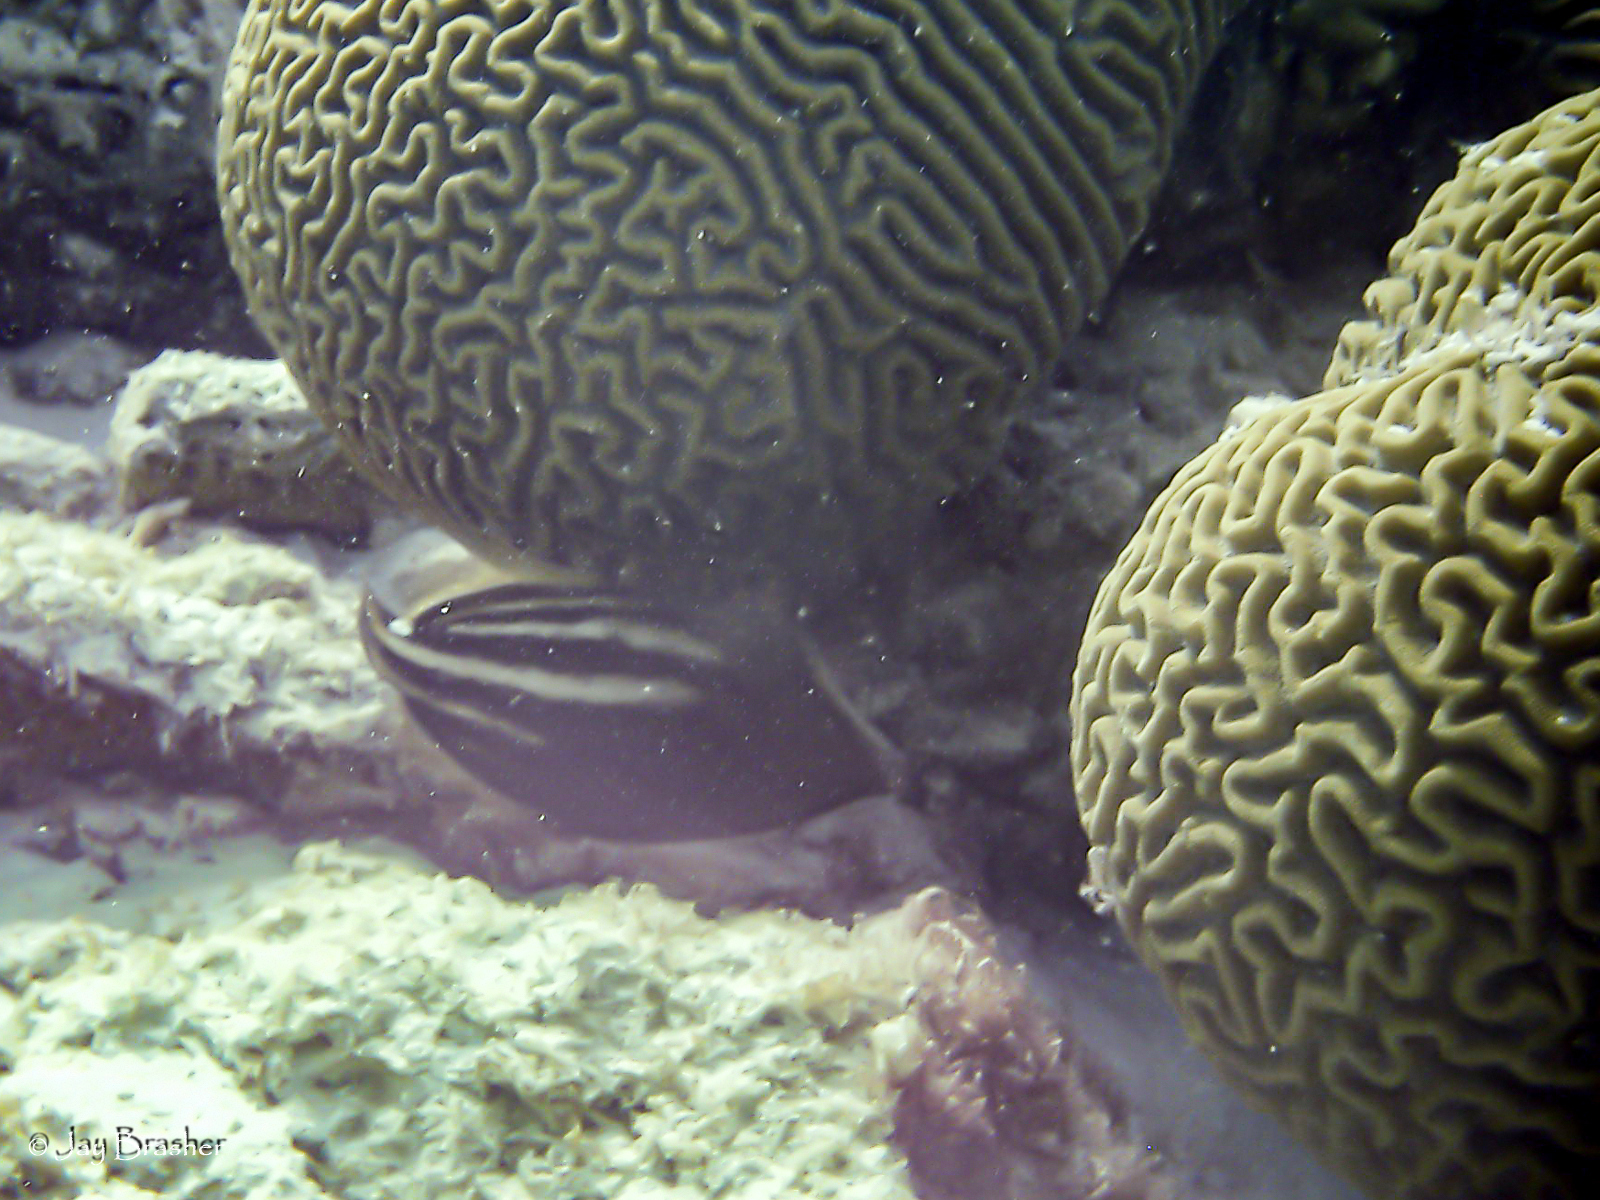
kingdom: Animalia
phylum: Chordata
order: Tetraodontiformes
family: Monacanthidae
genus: Cantherhines
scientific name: Cantherhines pullus
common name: Orangespotted filefish
